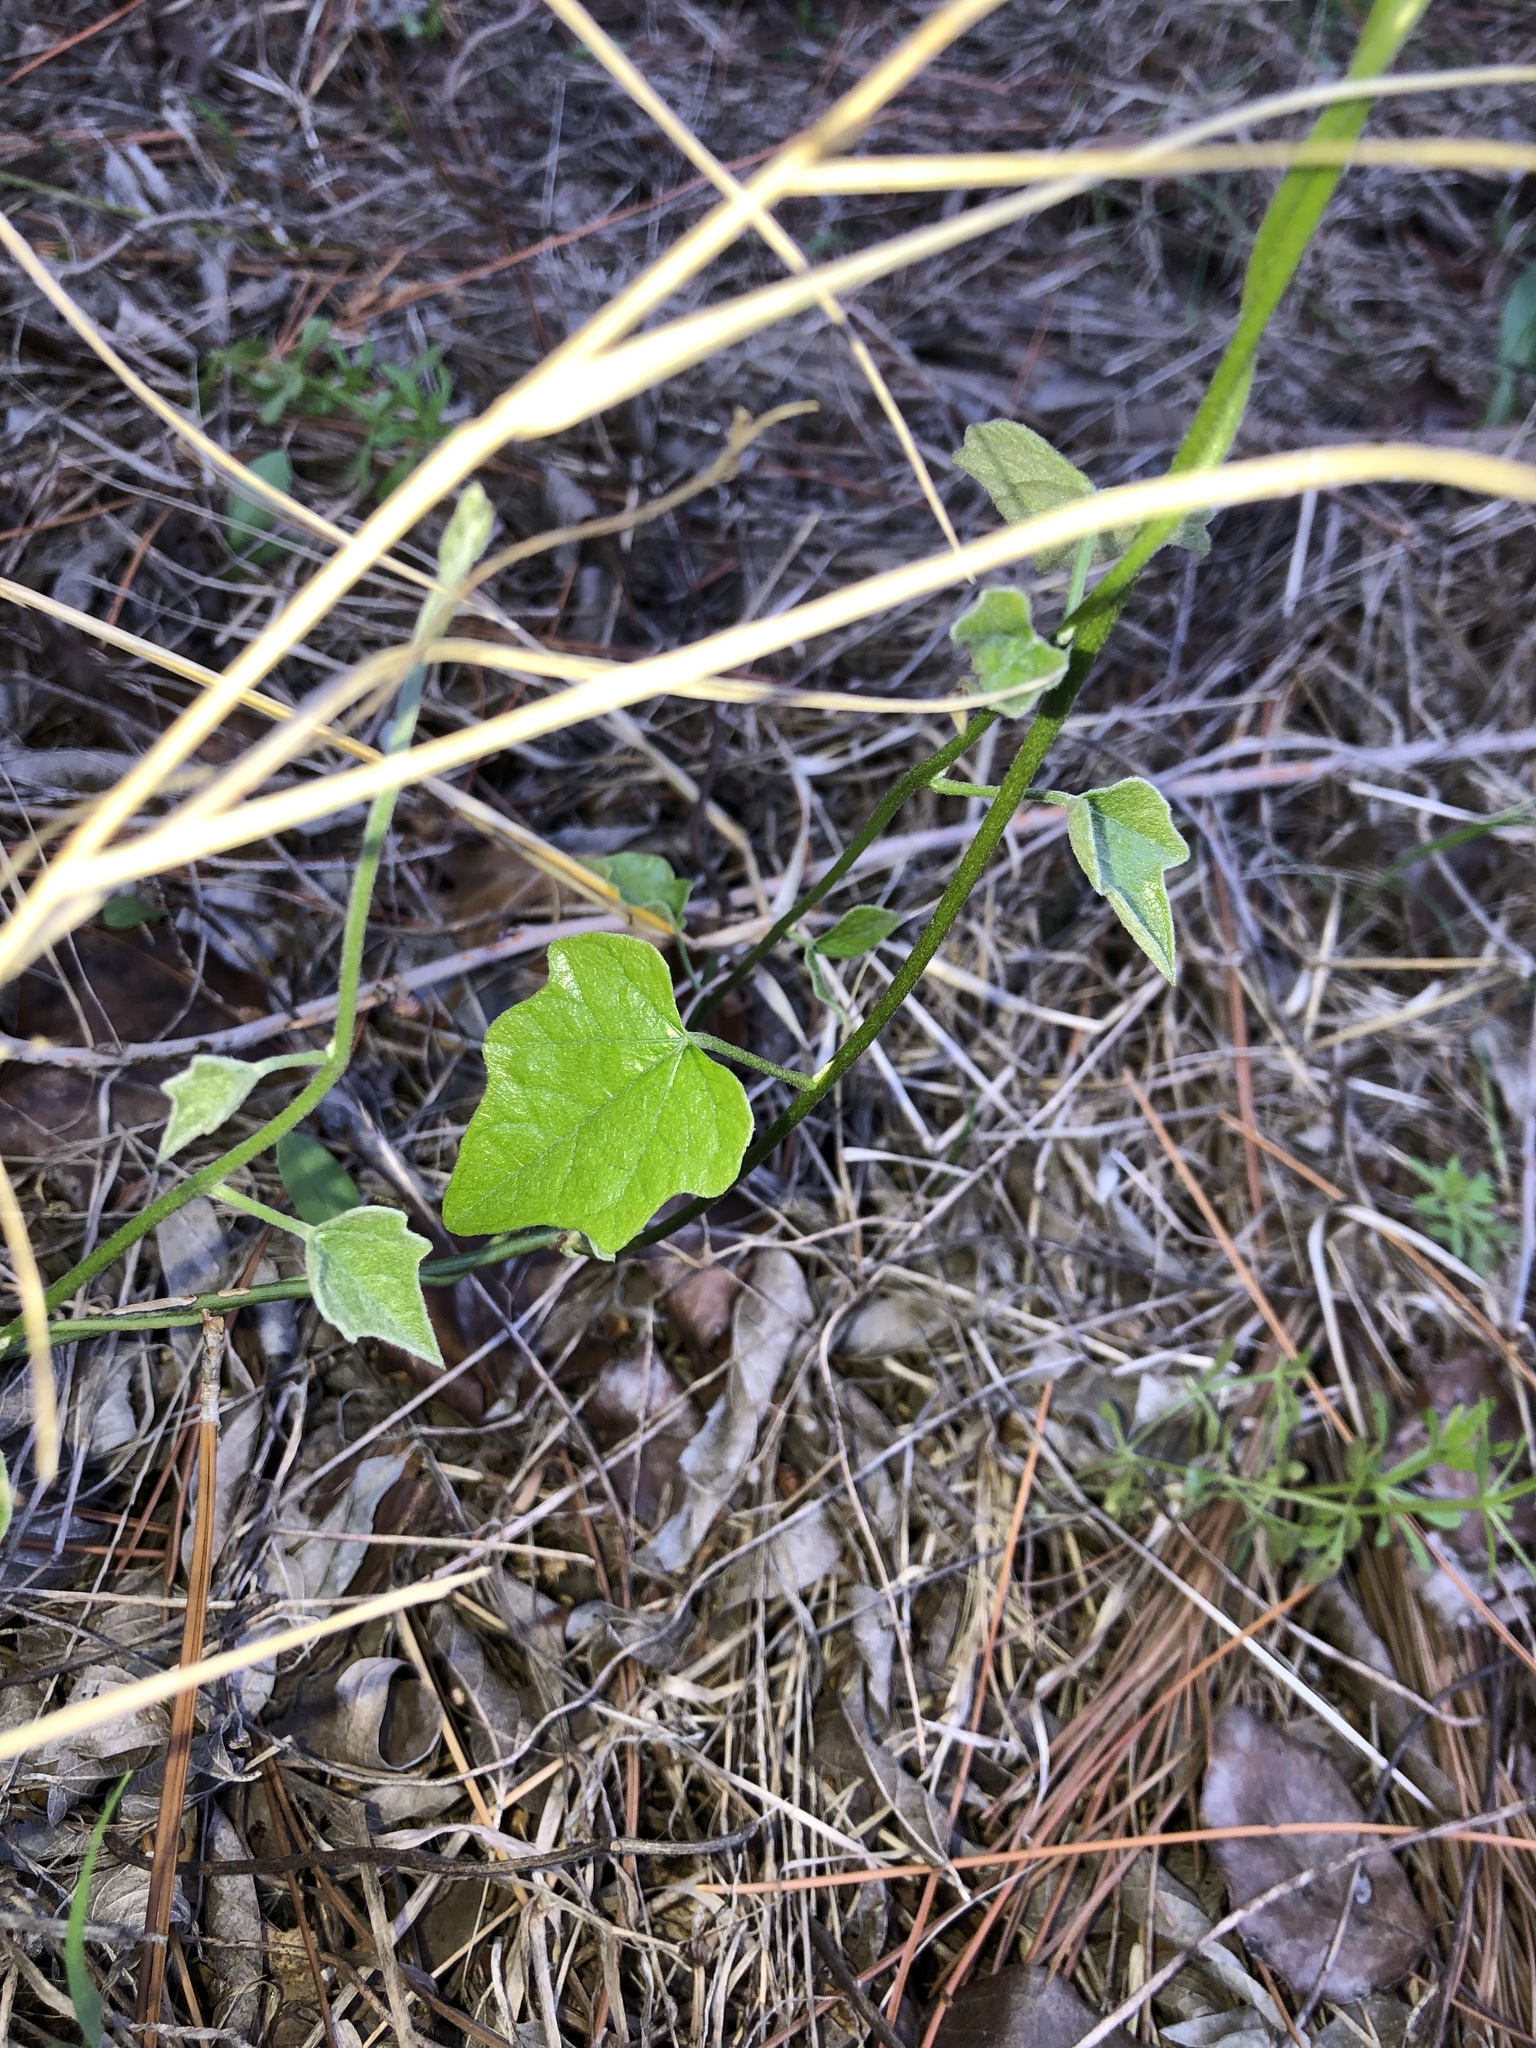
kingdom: Plantae
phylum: Tracheophyta
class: Magnoliopsida
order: Ranunculales
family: Menispermaceae
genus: Cocculus
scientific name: Cocculus carolinus
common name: Carolina moonseed
